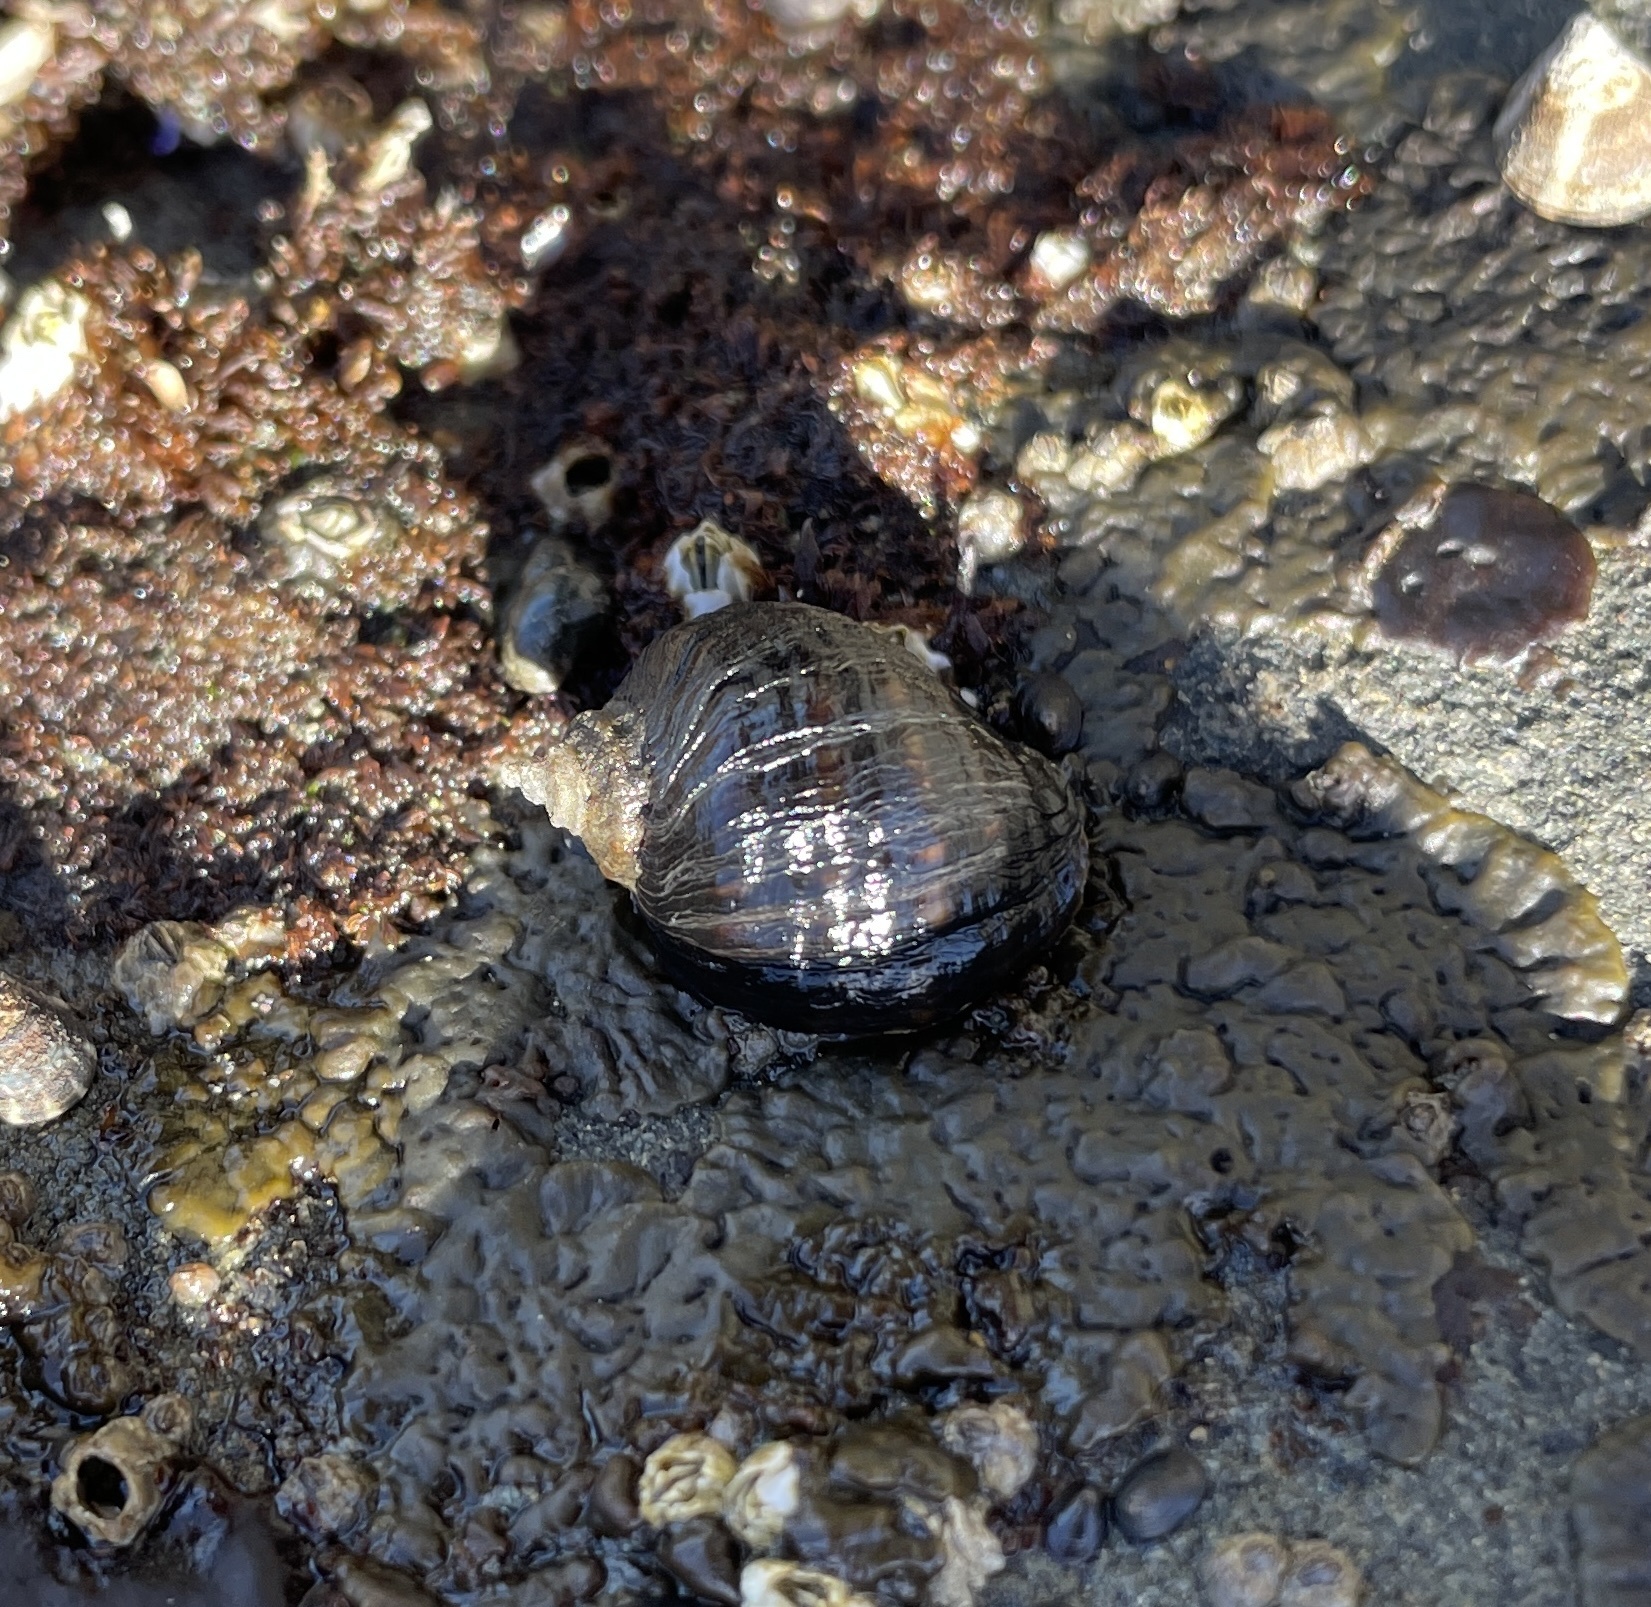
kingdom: Animalia
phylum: Mollusca
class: Gastropoda
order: Neogastropoda
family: Muricidae
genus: Nucella
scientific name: Nucella ostrina
